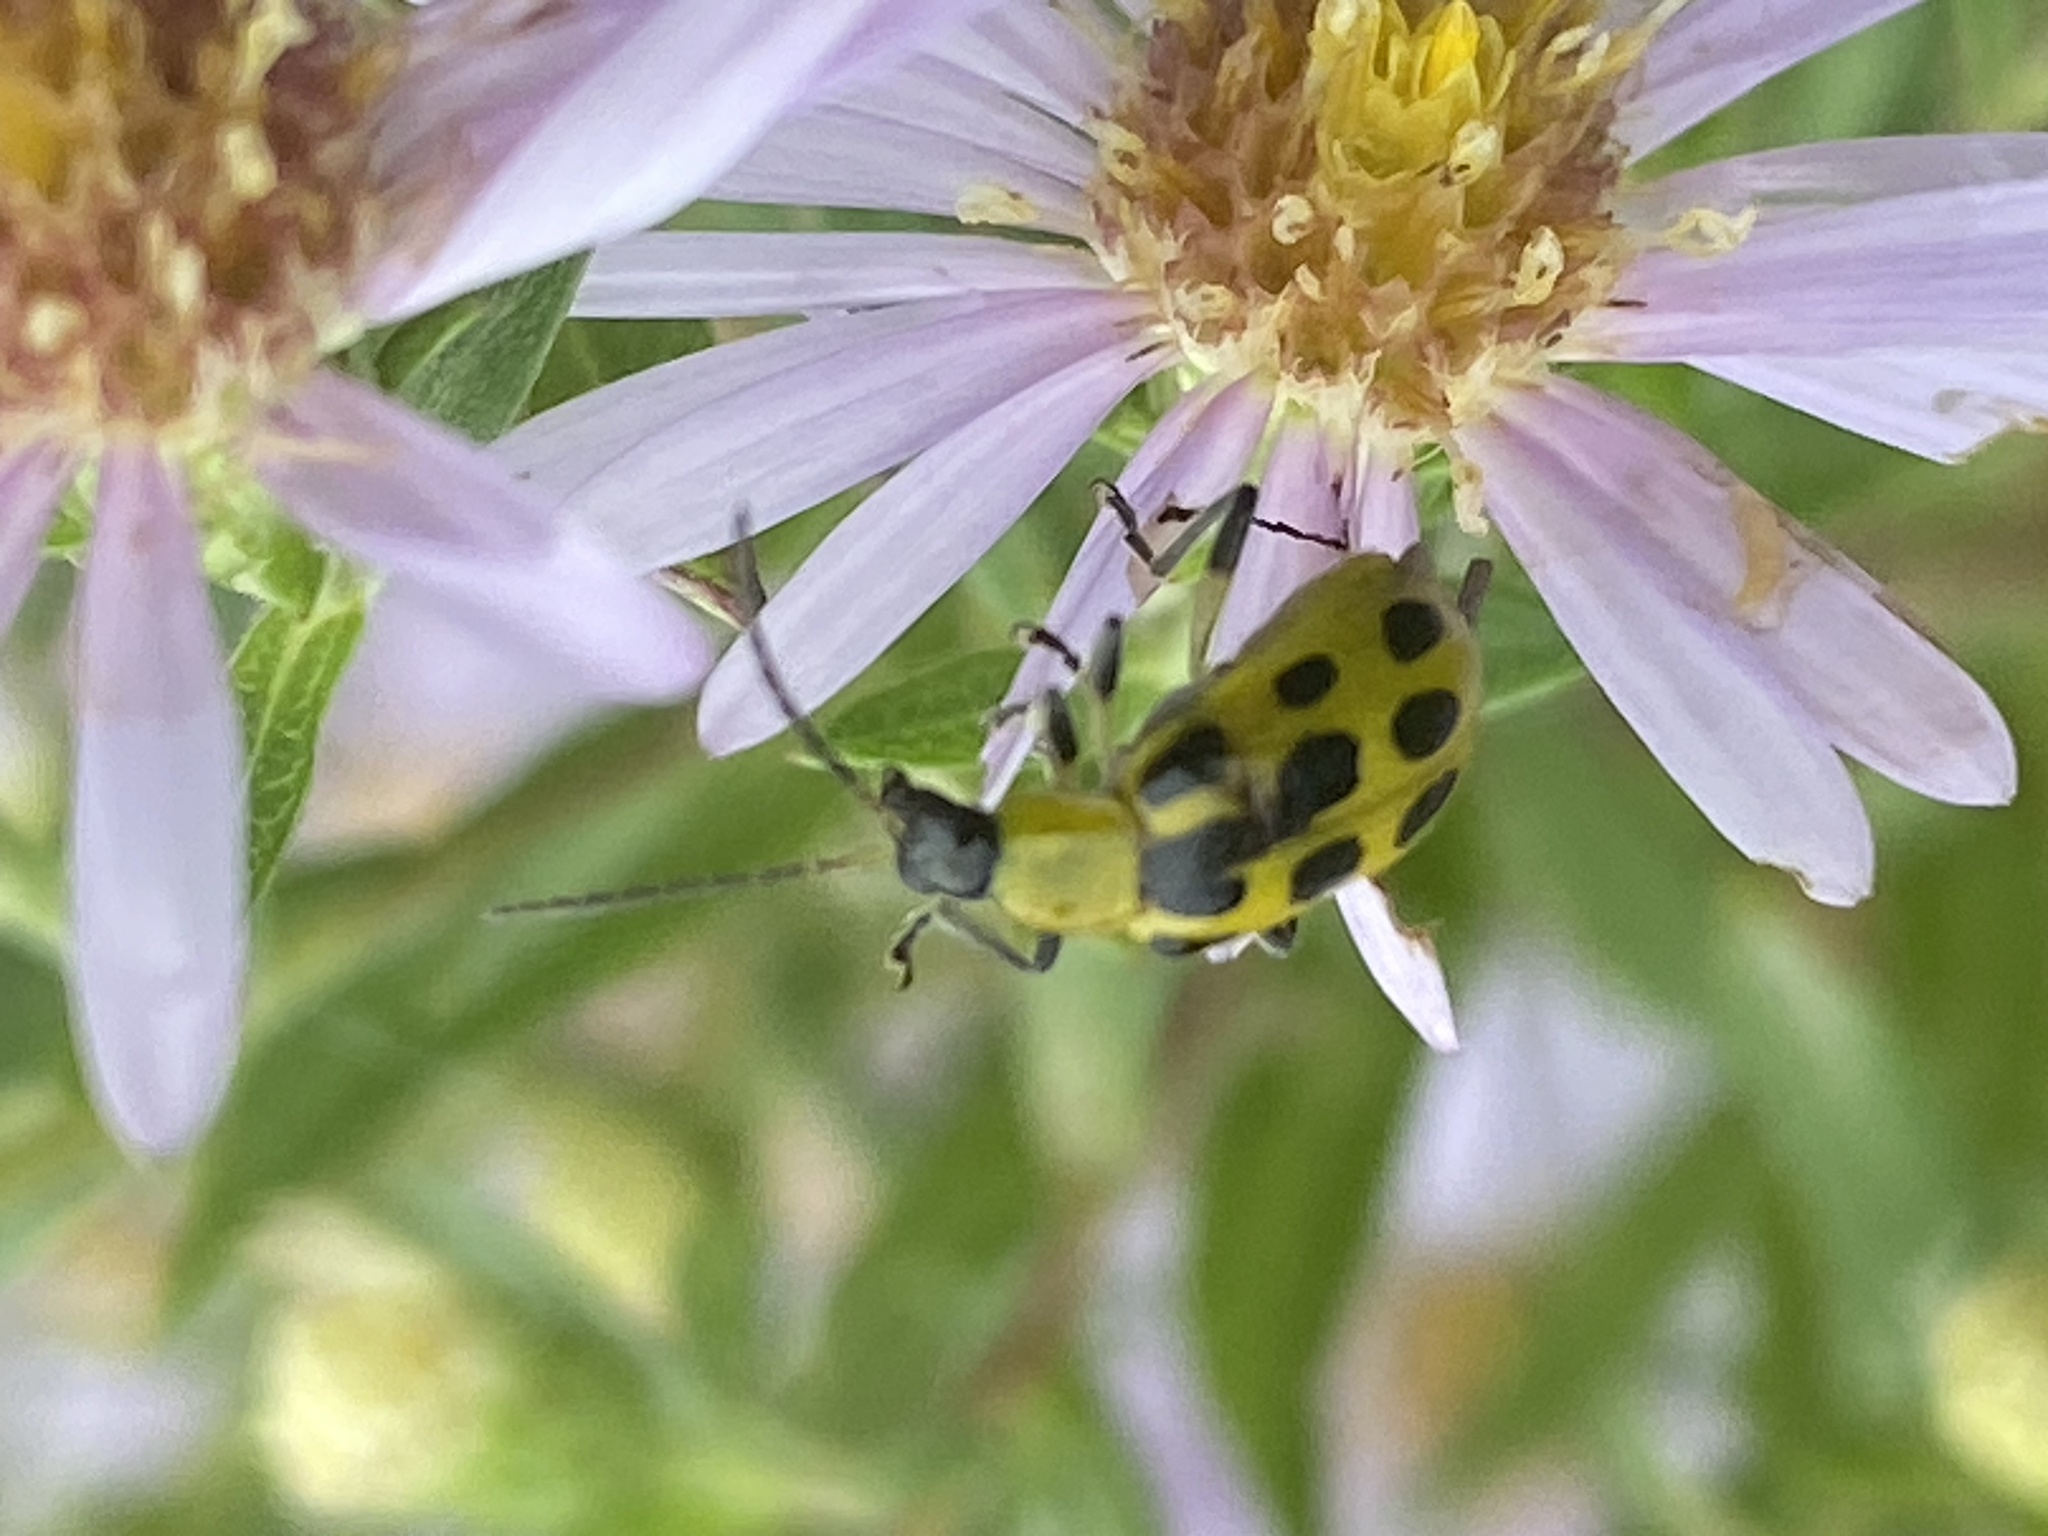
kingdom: Animalia
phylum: Arthropoda
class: Insecta
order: Coleoptera
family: Chrysomelidae
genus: Diabrotica
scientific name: Diabrotica undecimpunctata
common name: Spotted cucumber beetle
